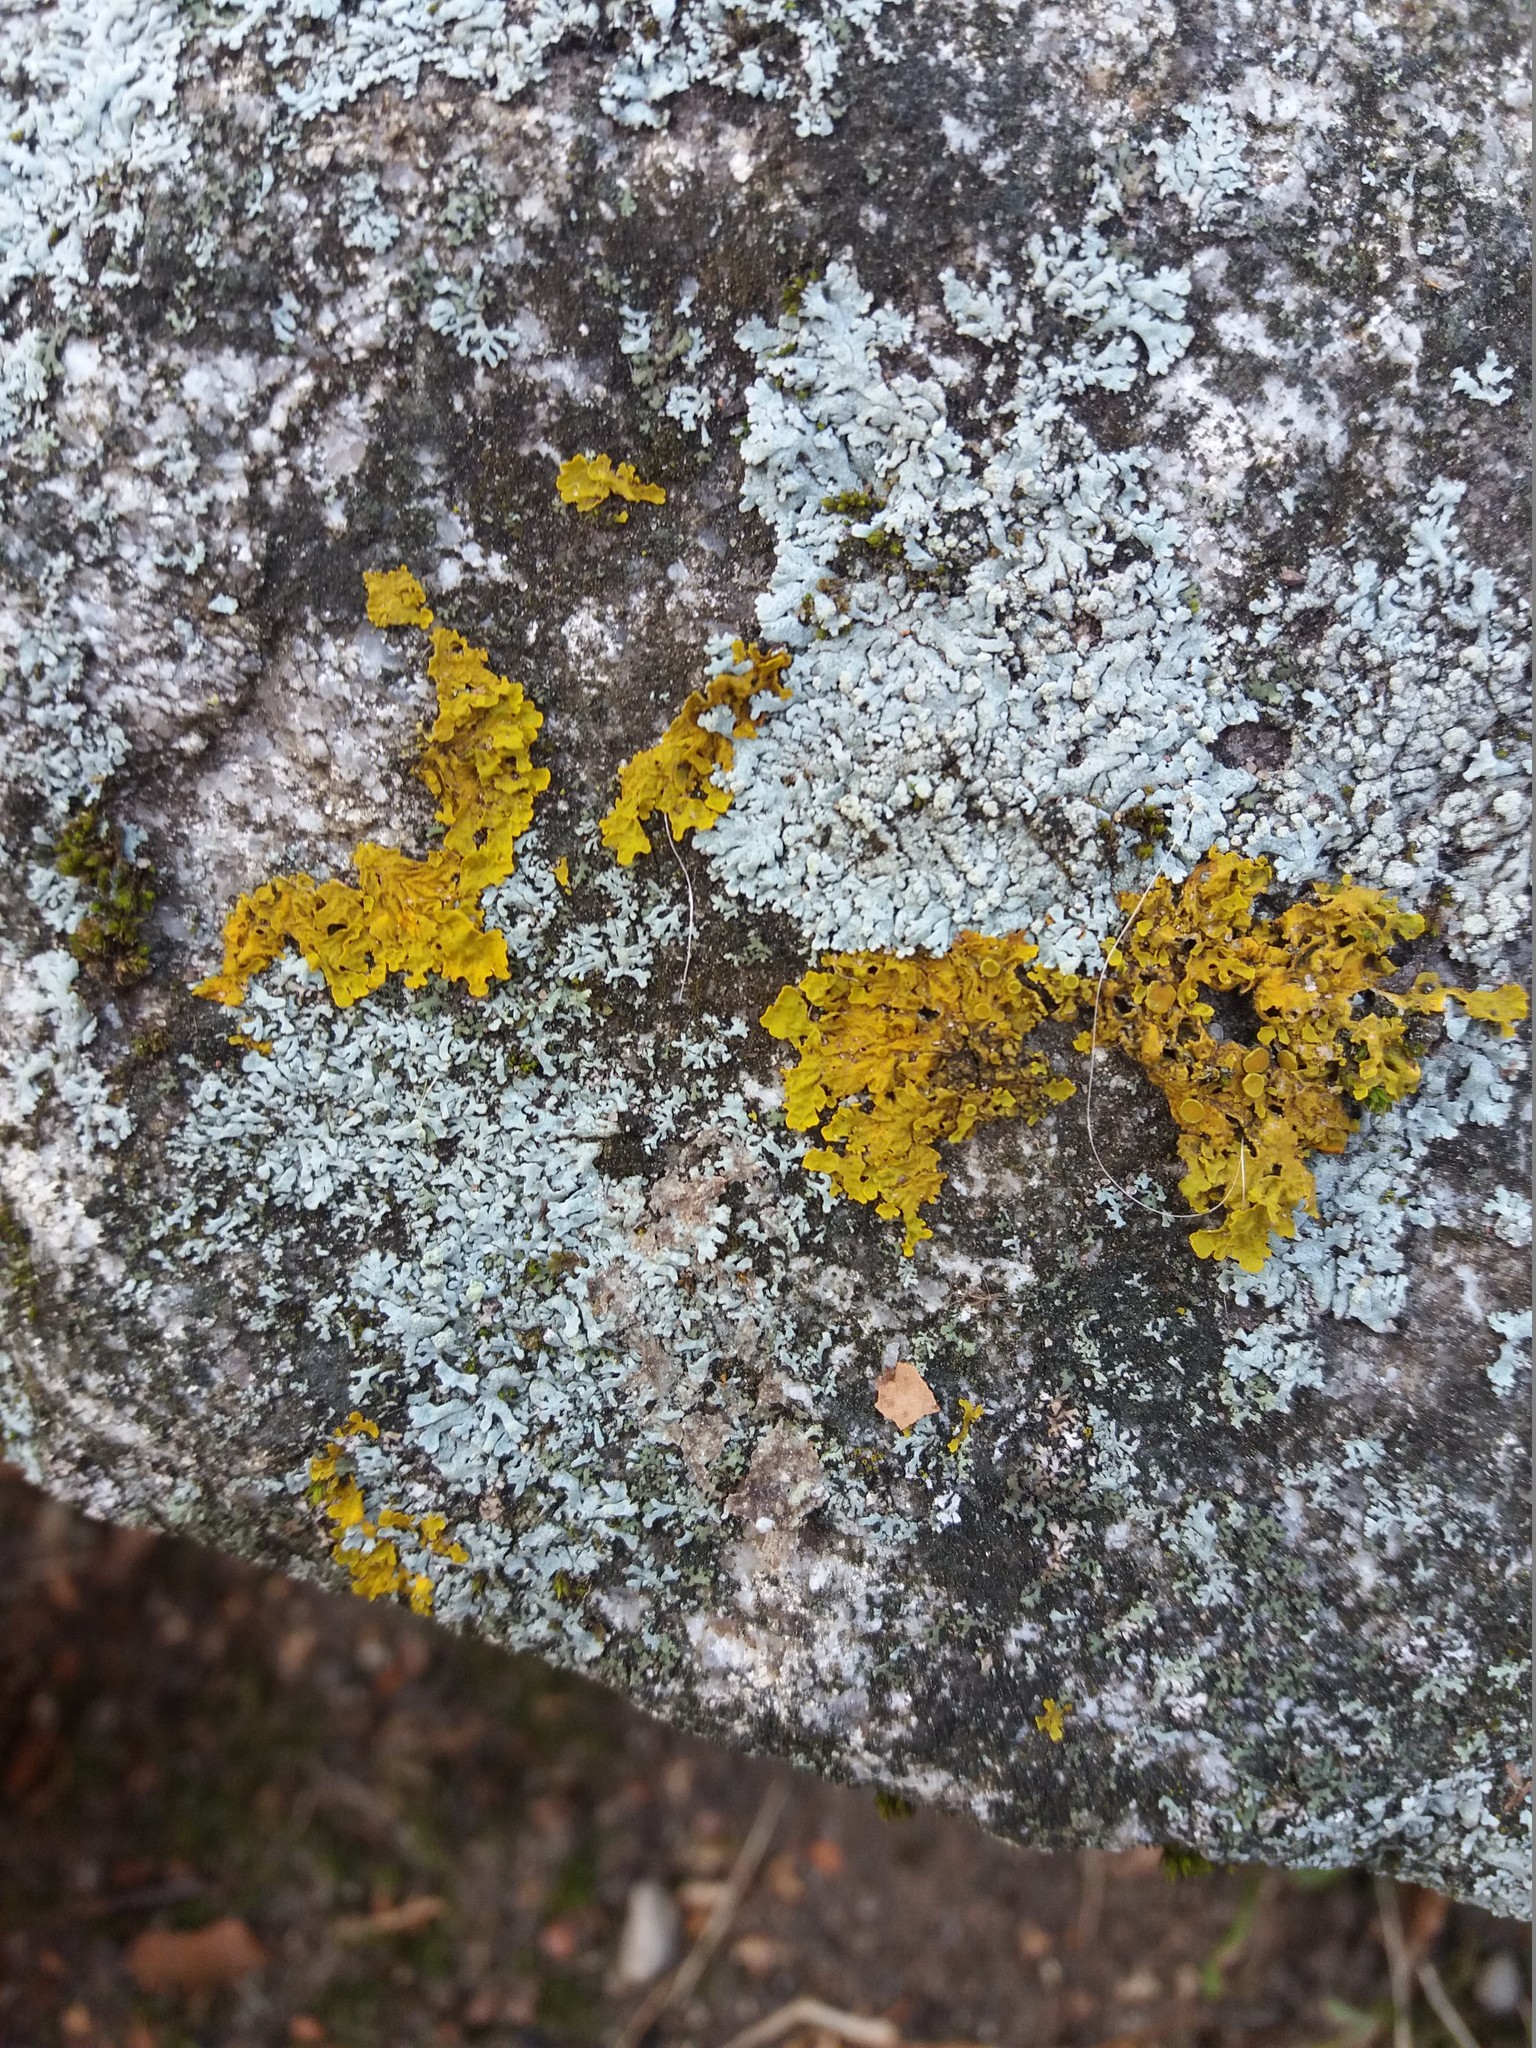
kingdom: Fungi
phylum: Ascomycota
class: Lecanoromycetes
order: Teloschistales
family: Teloschistaceae
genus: Xanthoria
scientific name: Xanthoria parietina
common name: Common orange lichen
